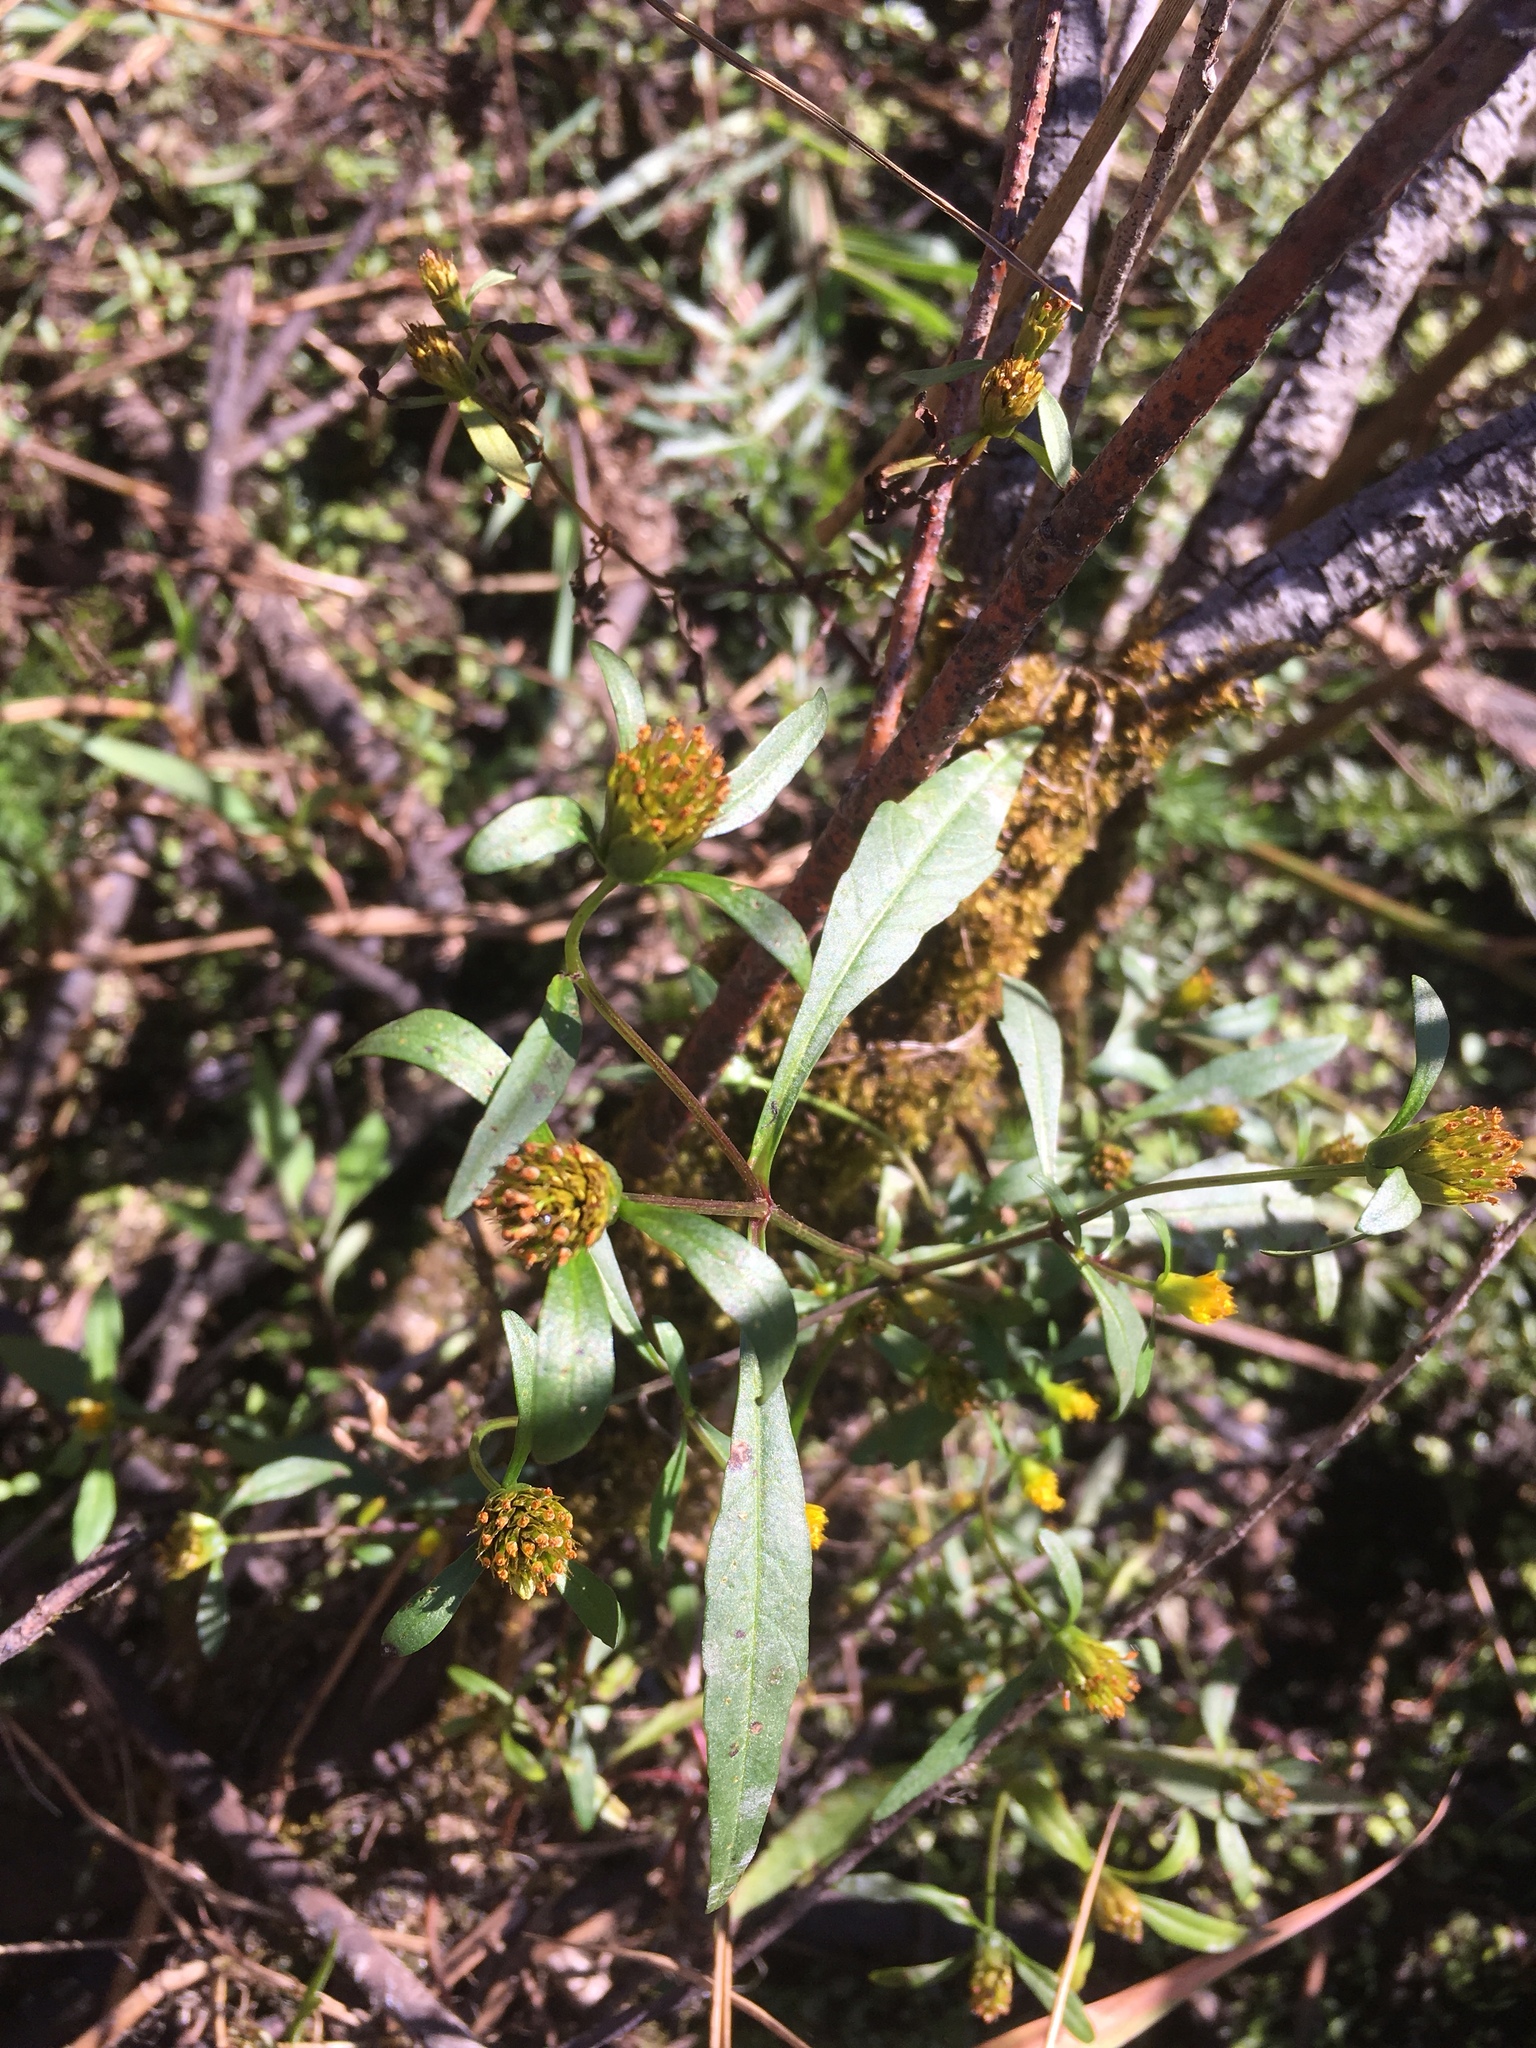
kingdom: Plantae
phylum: Tracheophyta
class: Magnoliopsida
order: Asterales
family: Asteraceae
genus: Bidens
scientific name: Bidens connata
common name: London bur-marigold
